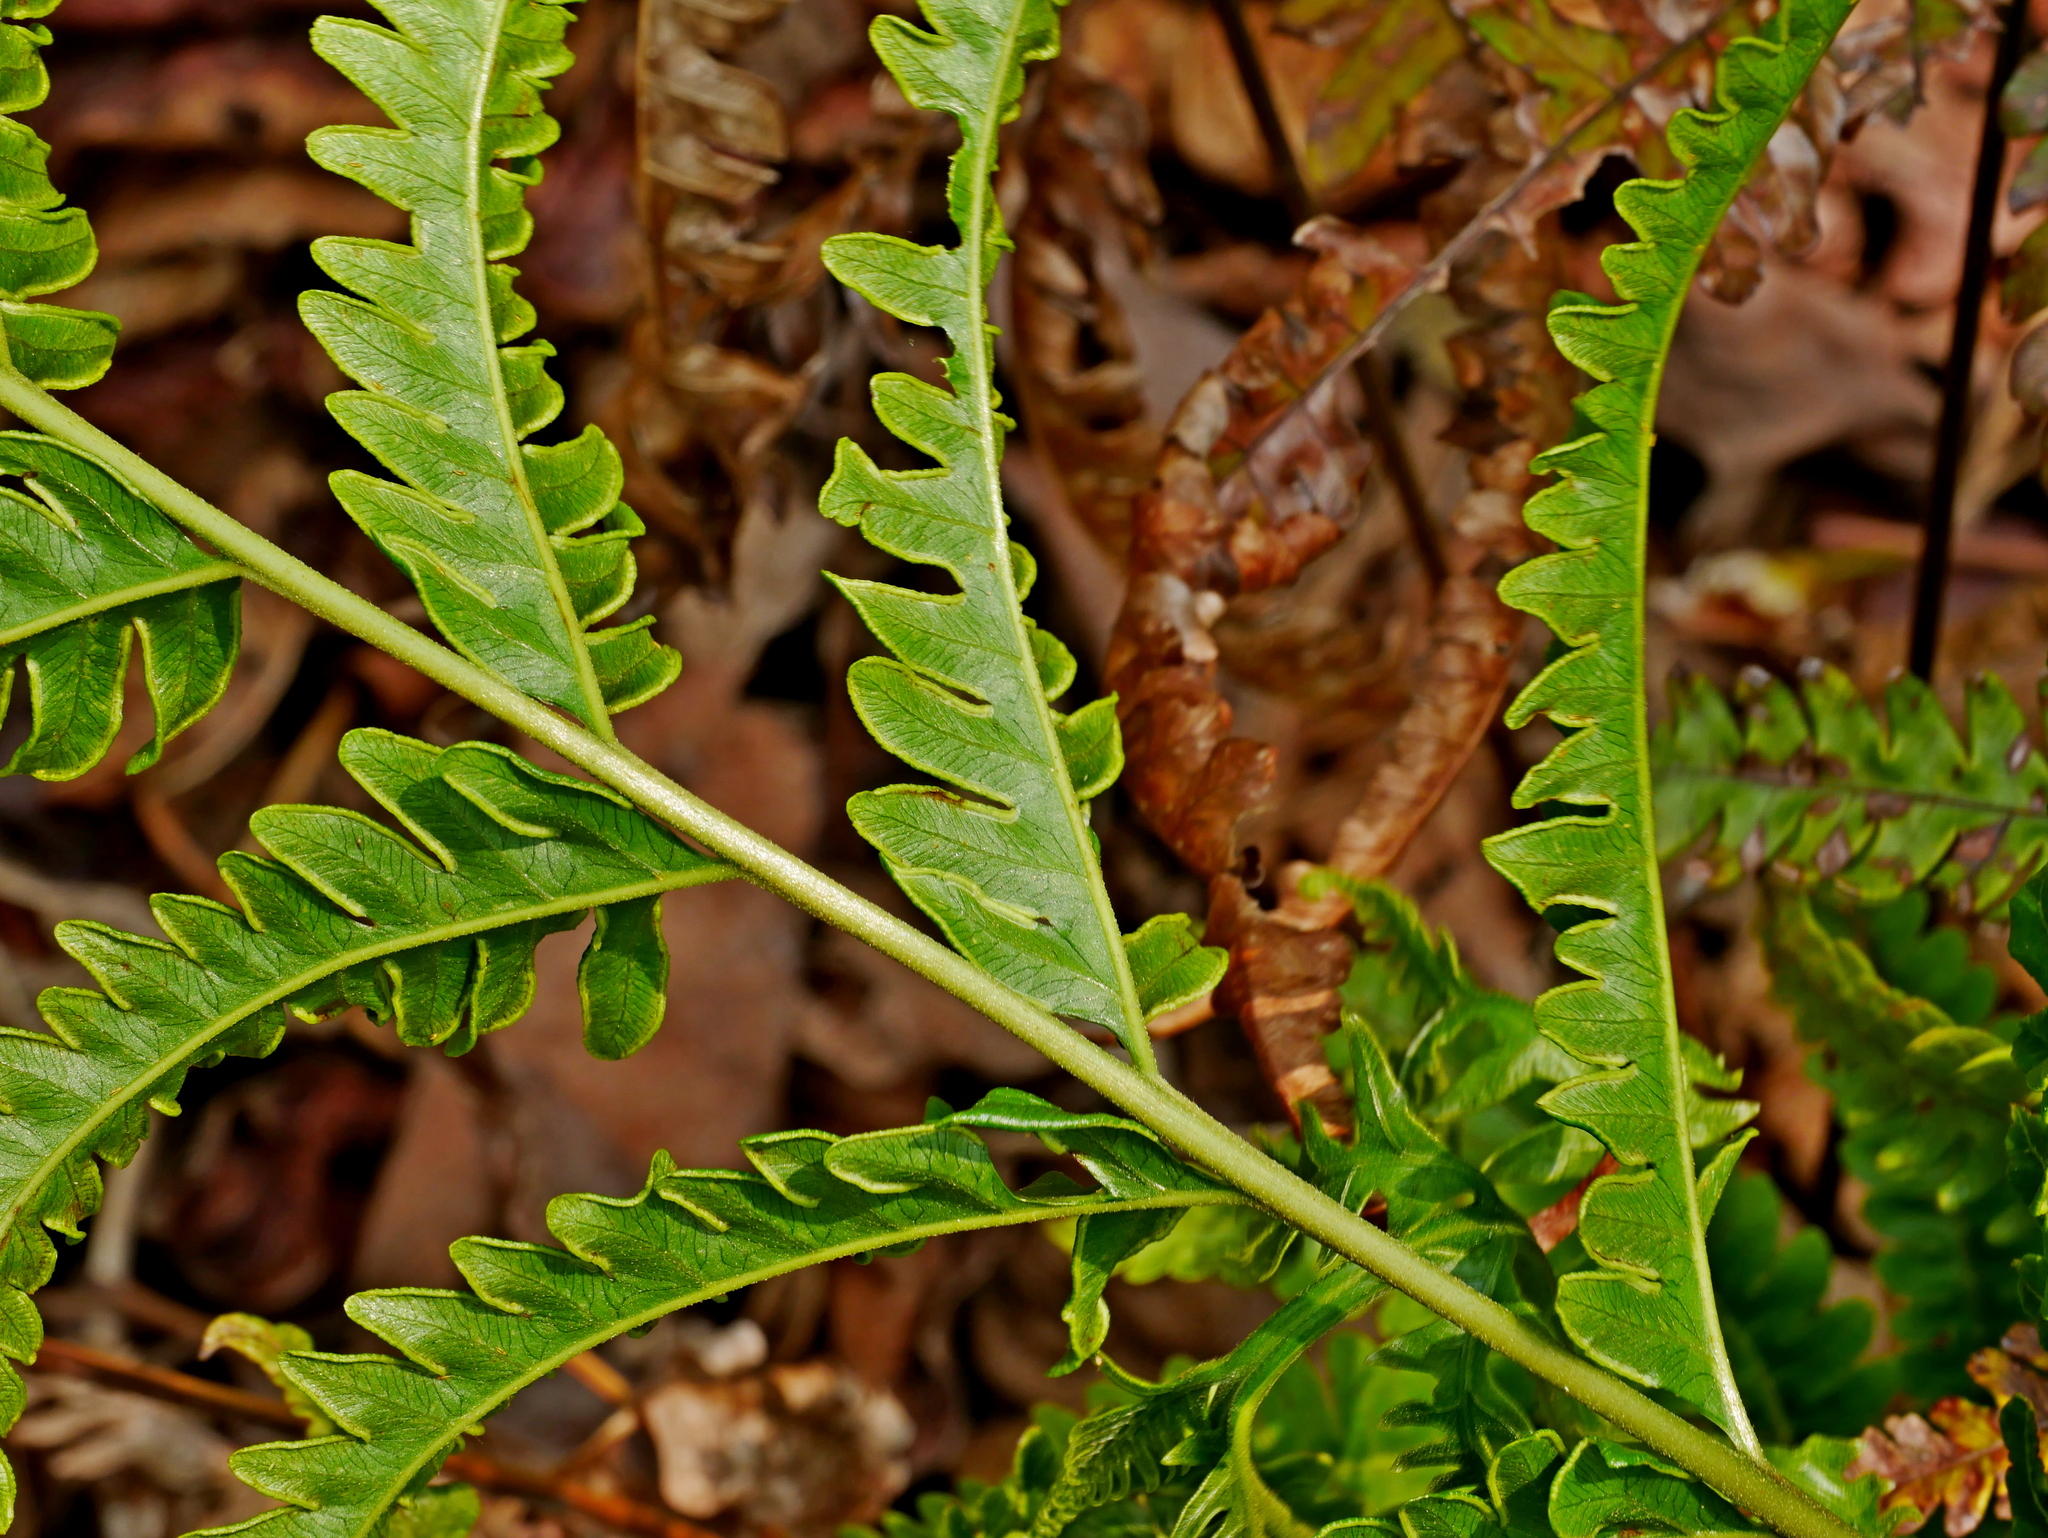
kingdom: Plantae
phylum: Tracheophyta
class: Polypodiopsida
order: Polypodiales
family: Pteridaceae
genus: Pteris
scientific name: Pteris biaurita
